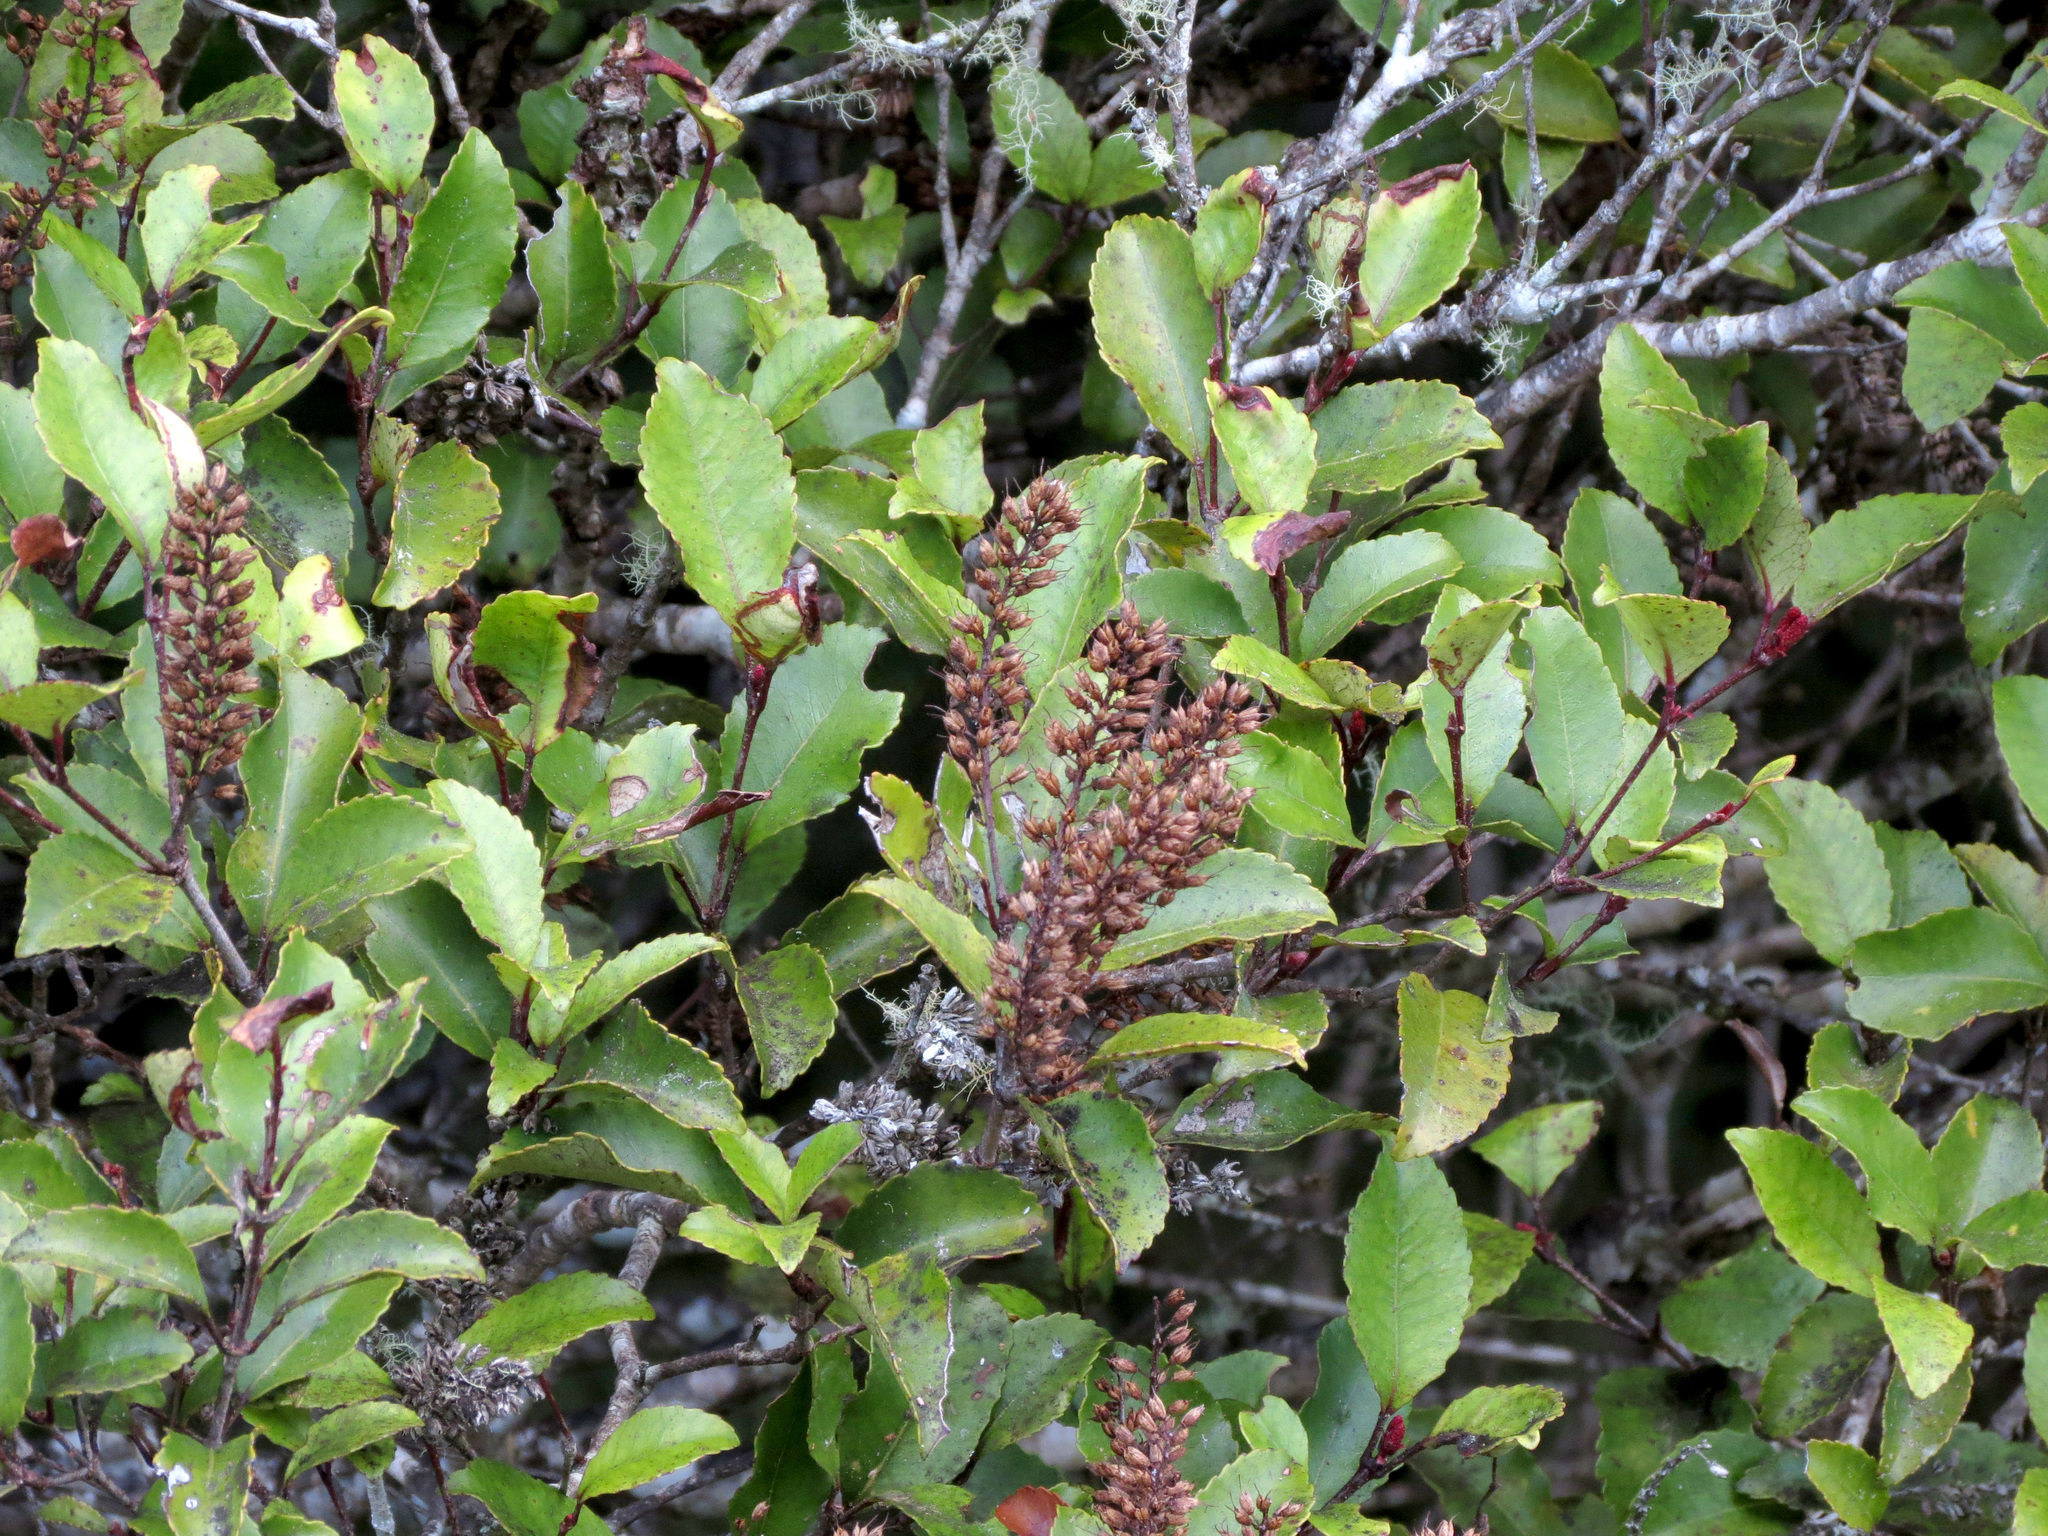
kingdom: Plantae
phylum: Tracheophyta
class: Magnoliopsida
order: Oxalidales
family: Cunoniaceae
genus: Pterophylla
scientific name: Pterophylla racemosa
